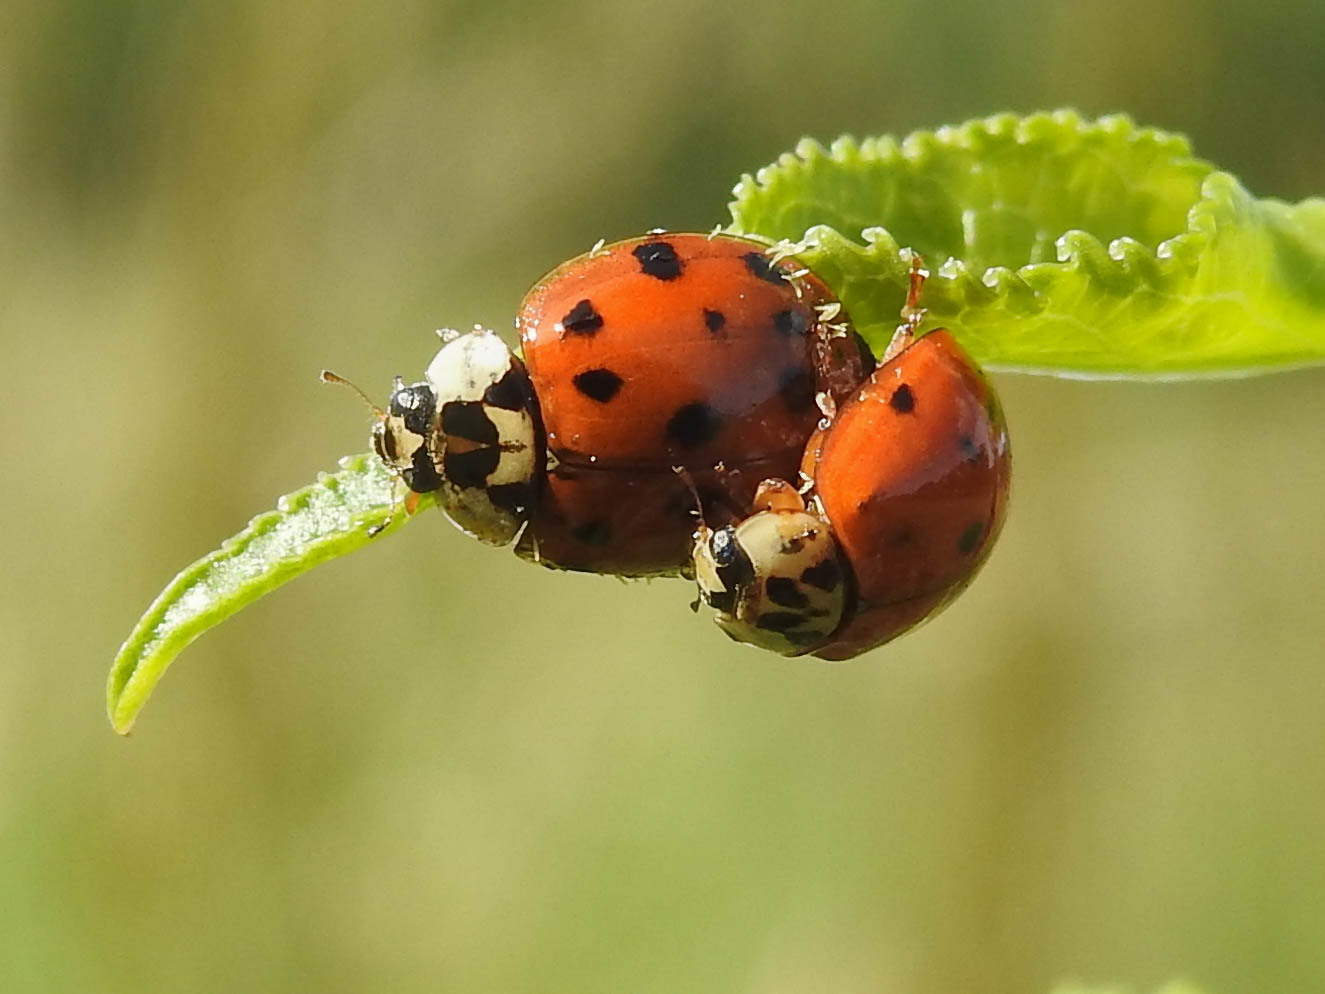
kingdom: Animalia
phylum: Arthropoda
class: Insecta
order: Coleoptera
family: Coccinellidae
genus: Harmonia
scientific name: Harmonia axyridis
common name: Harlequin ladybird
